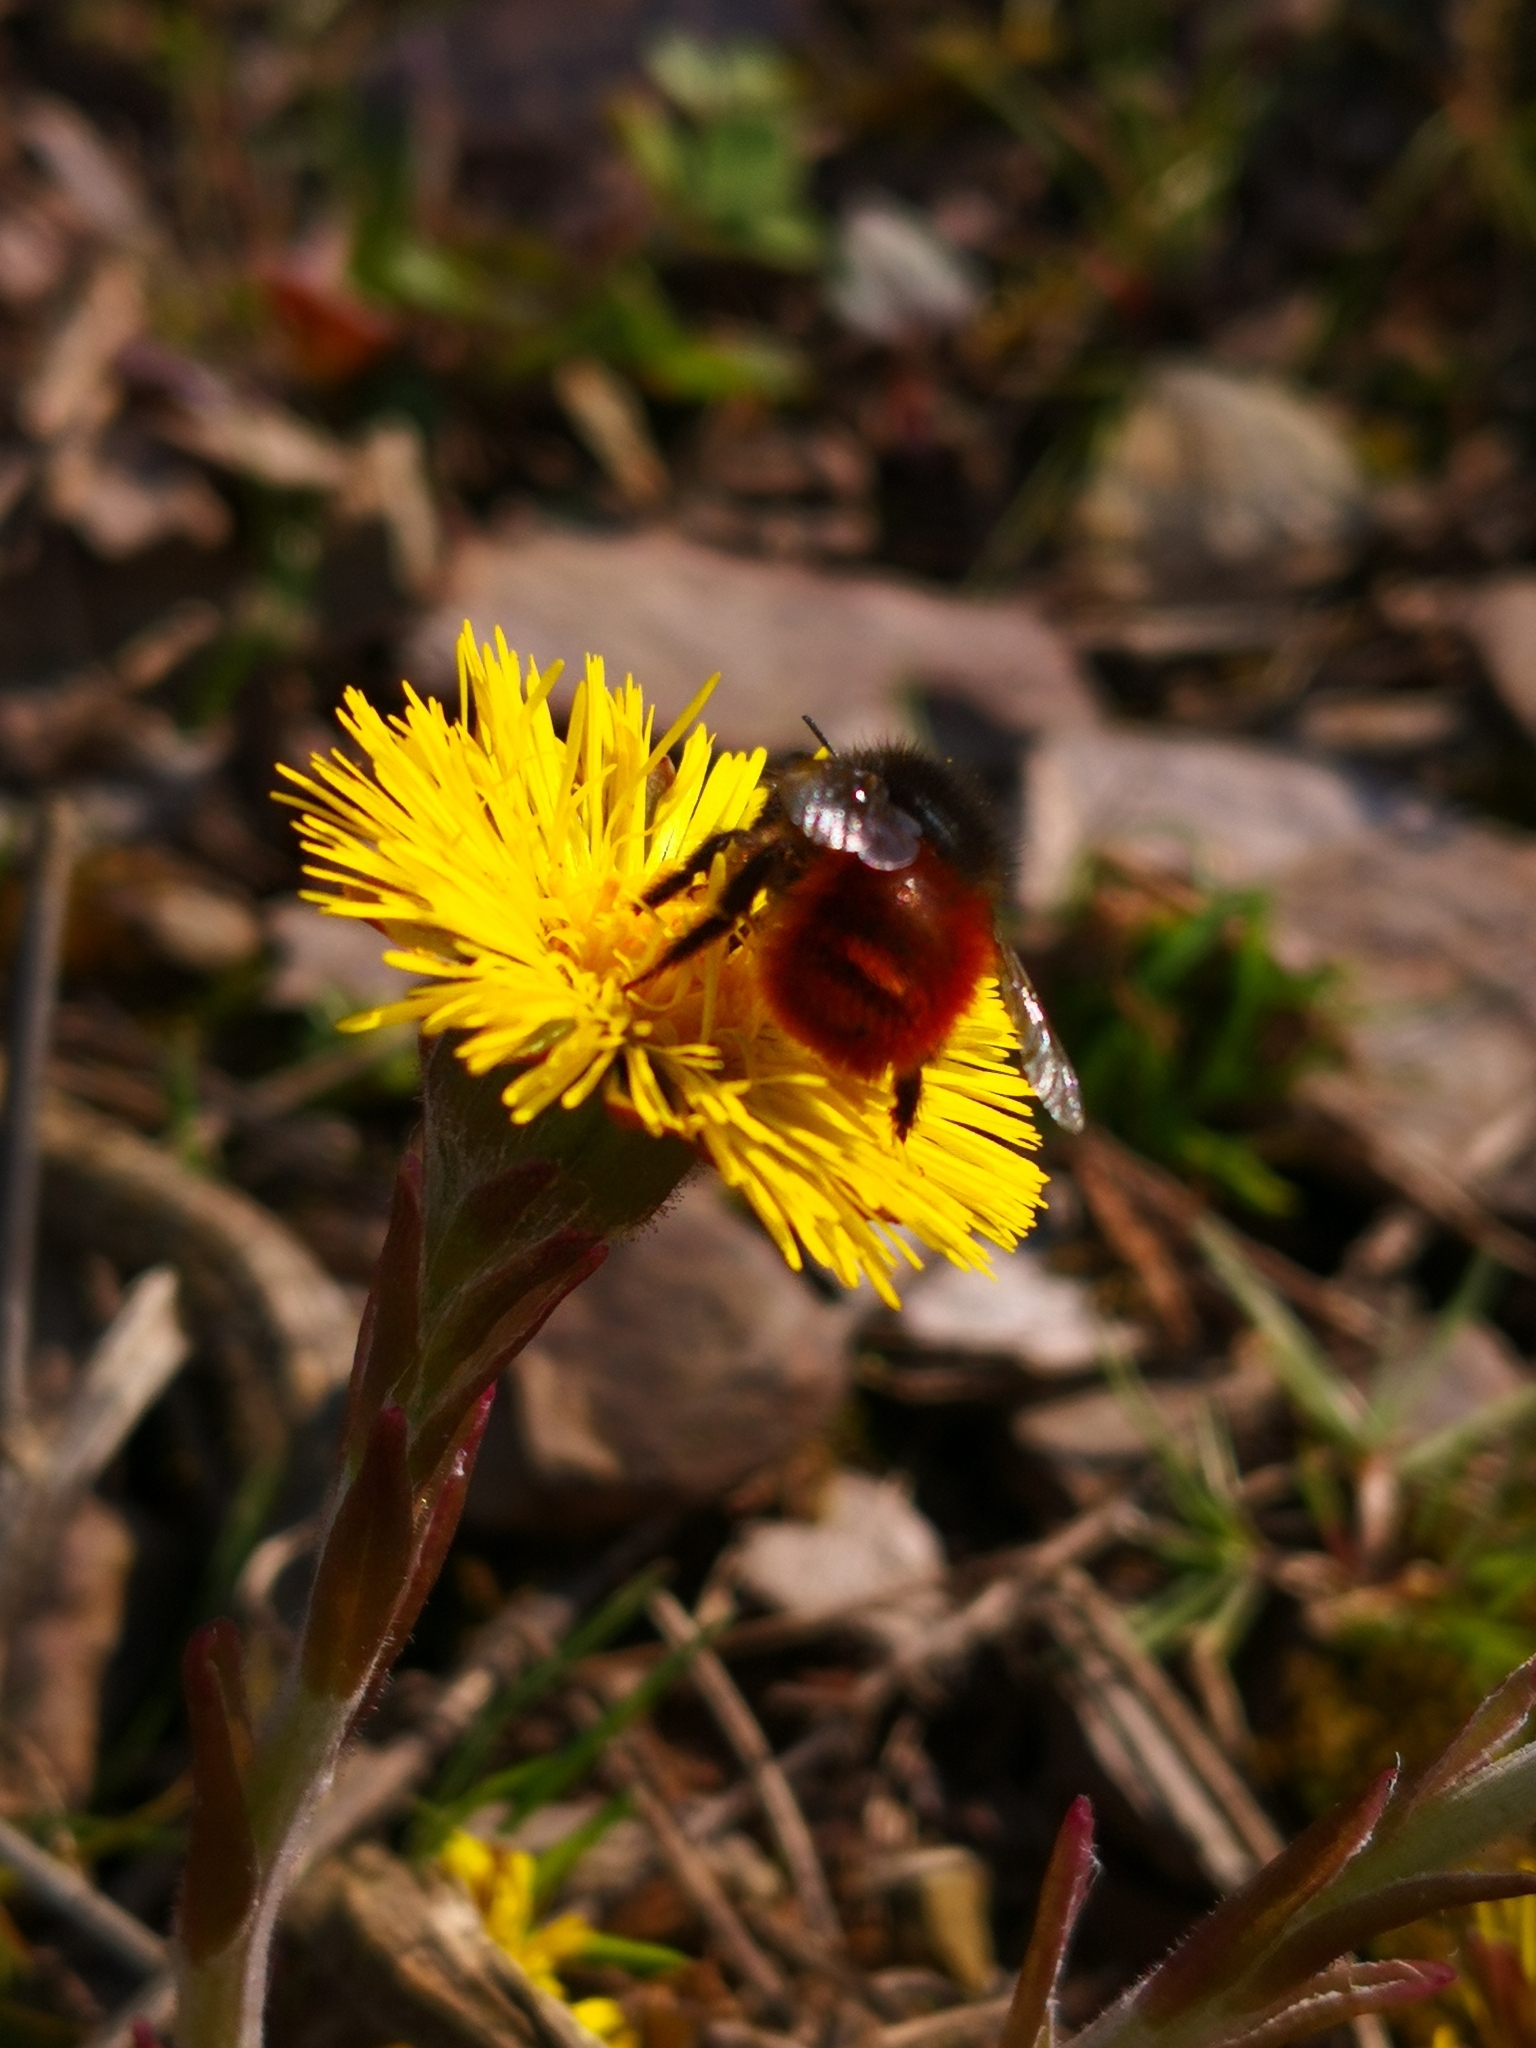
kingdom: Animalia
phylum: Arthropoda
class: Insecta
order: Hymenoptera
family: Megachilidae
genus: Osmia
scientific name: Osmia cornuta
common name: Mason bee
